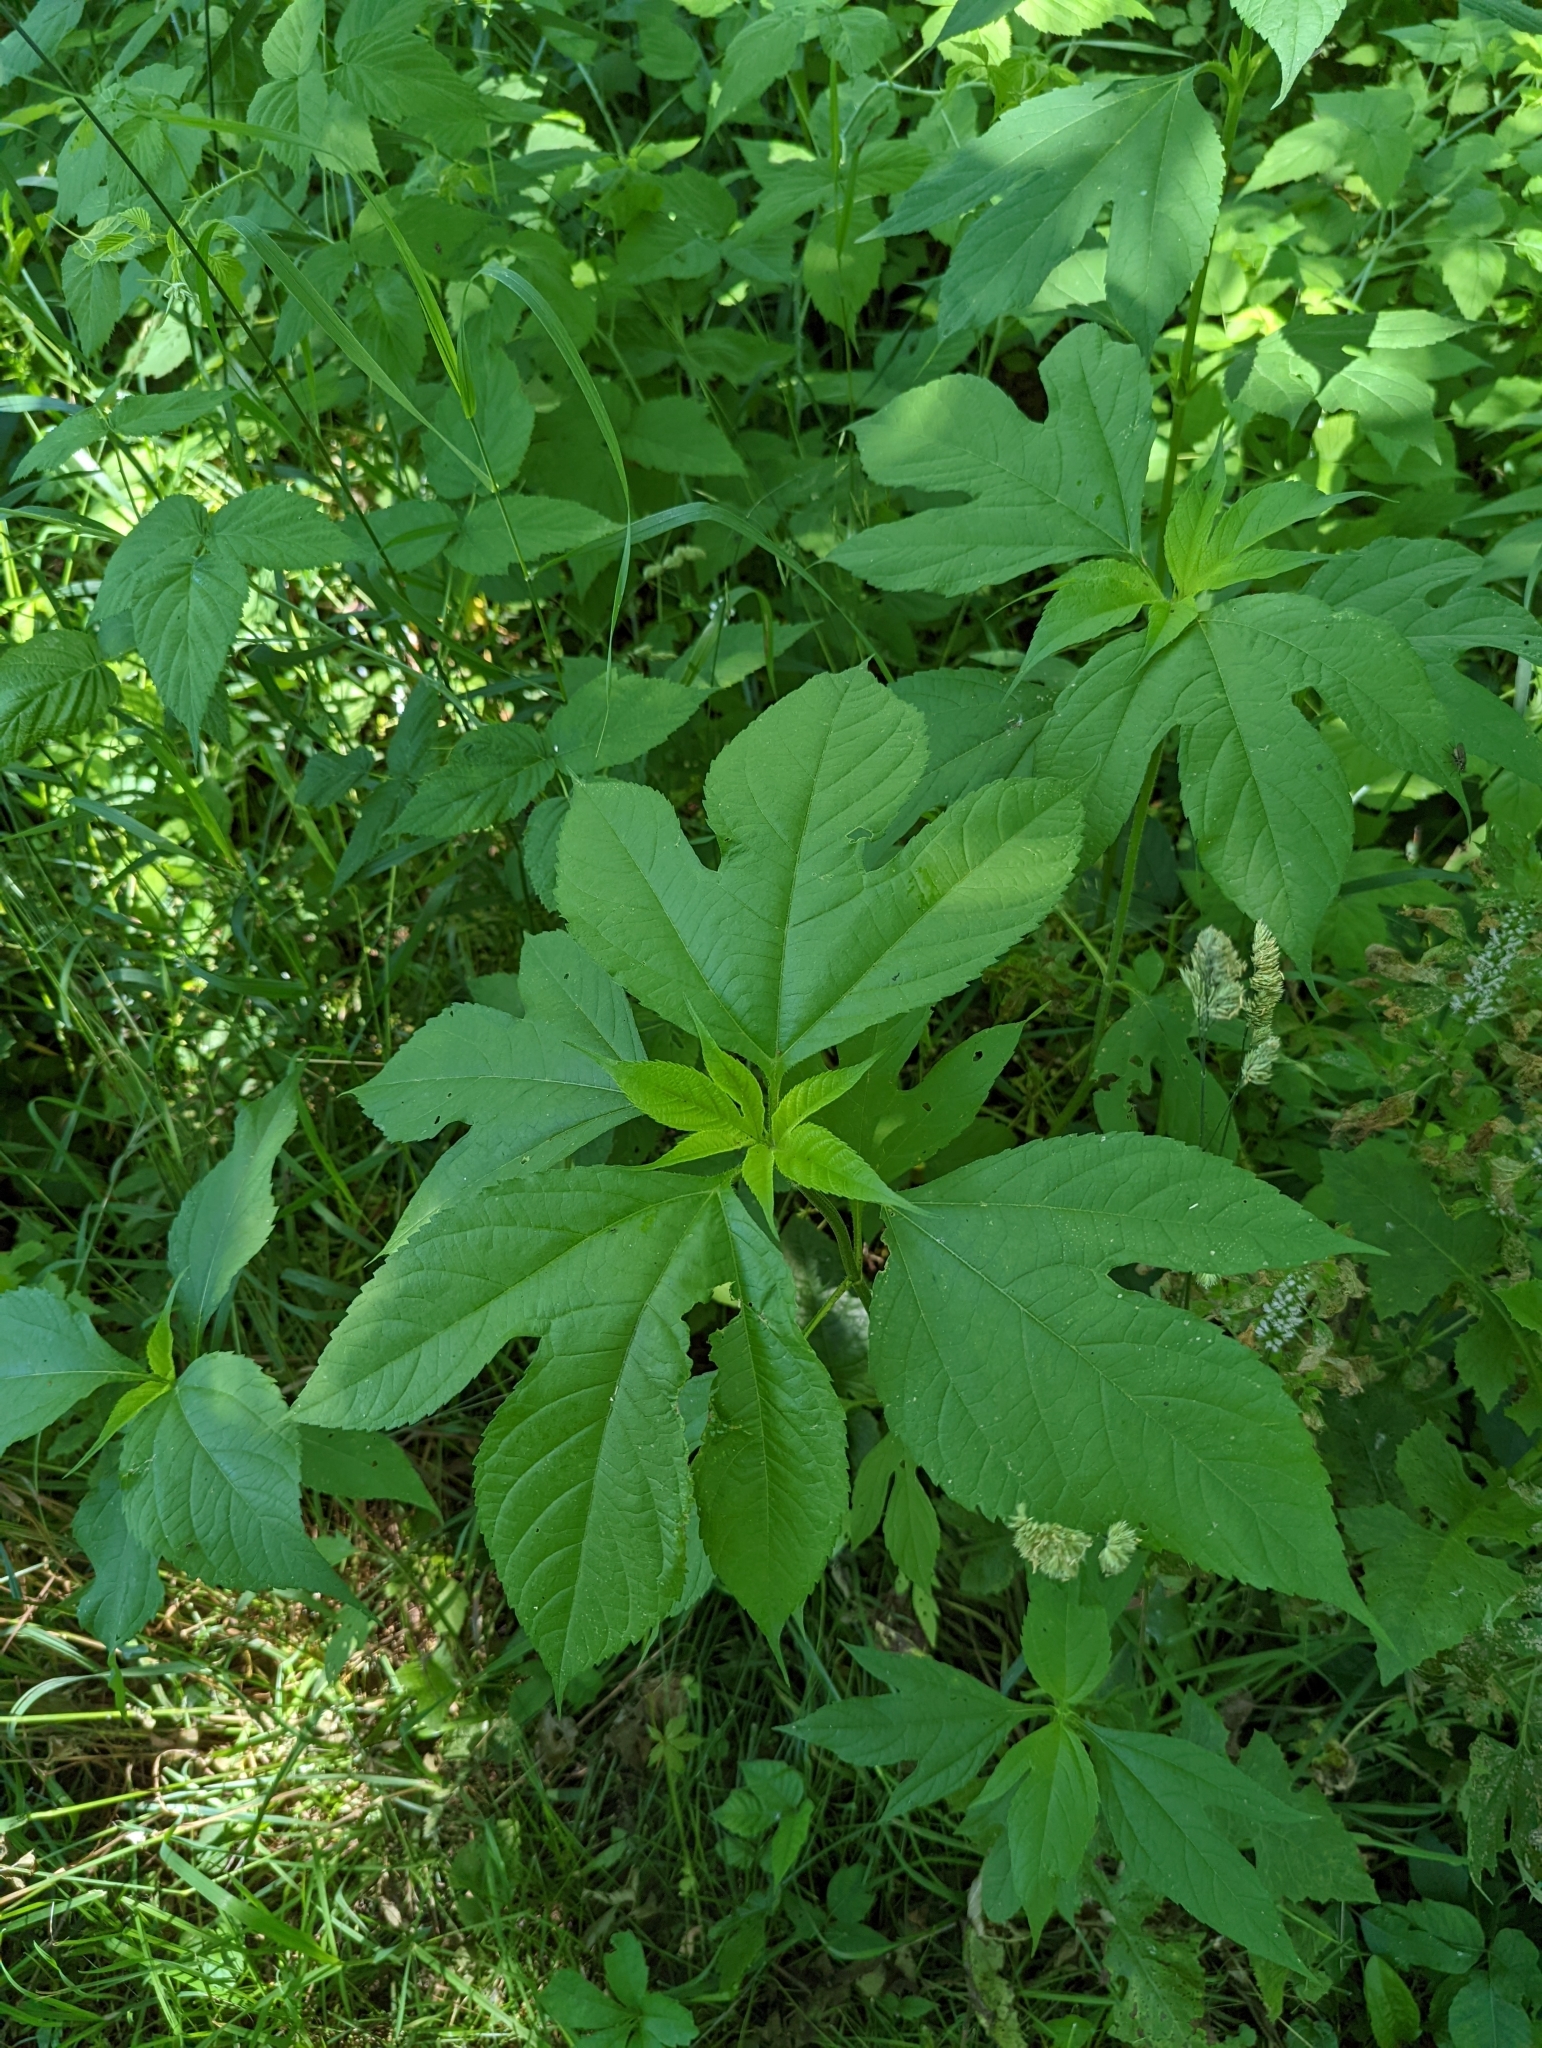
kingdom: Plantae
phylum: Tracheophyta
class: Magnoliopsida
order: Asterales
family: Asteraceae
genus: Ambrosia
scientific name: Ambrosia trifida
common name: Giant ragweed
